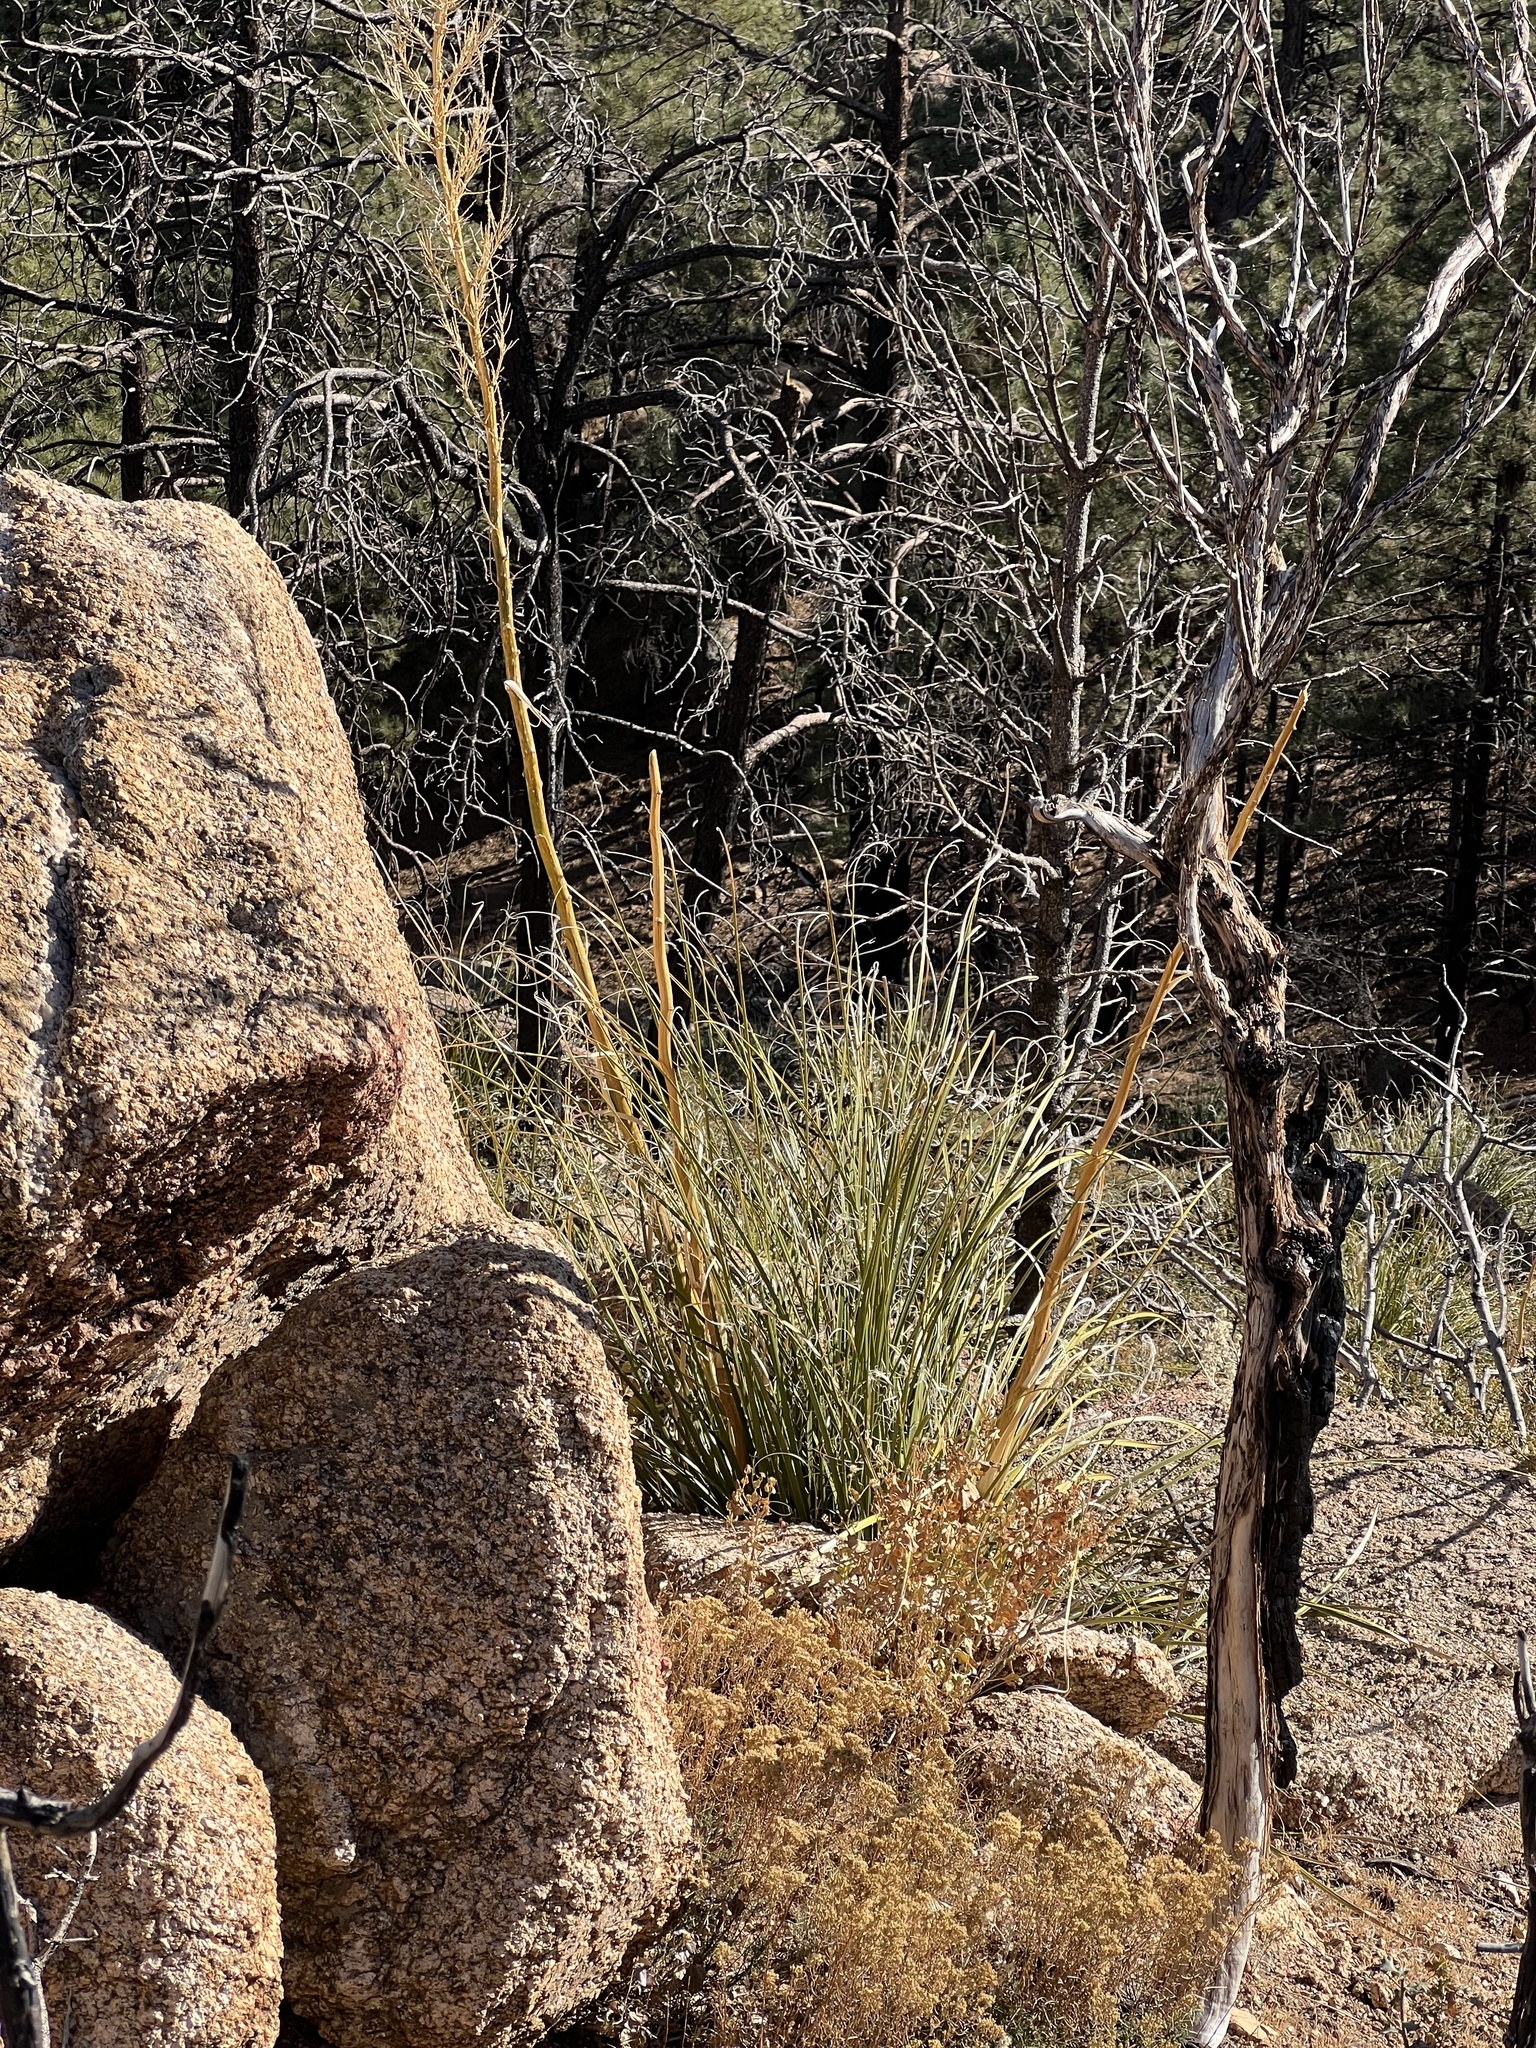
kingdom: Plantae
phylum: Tracheophyta
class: Liliopsida
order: Asparagales
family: Asparagaceae
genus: Nolina
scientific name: Nolina microcarpa
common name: Bear-grass
